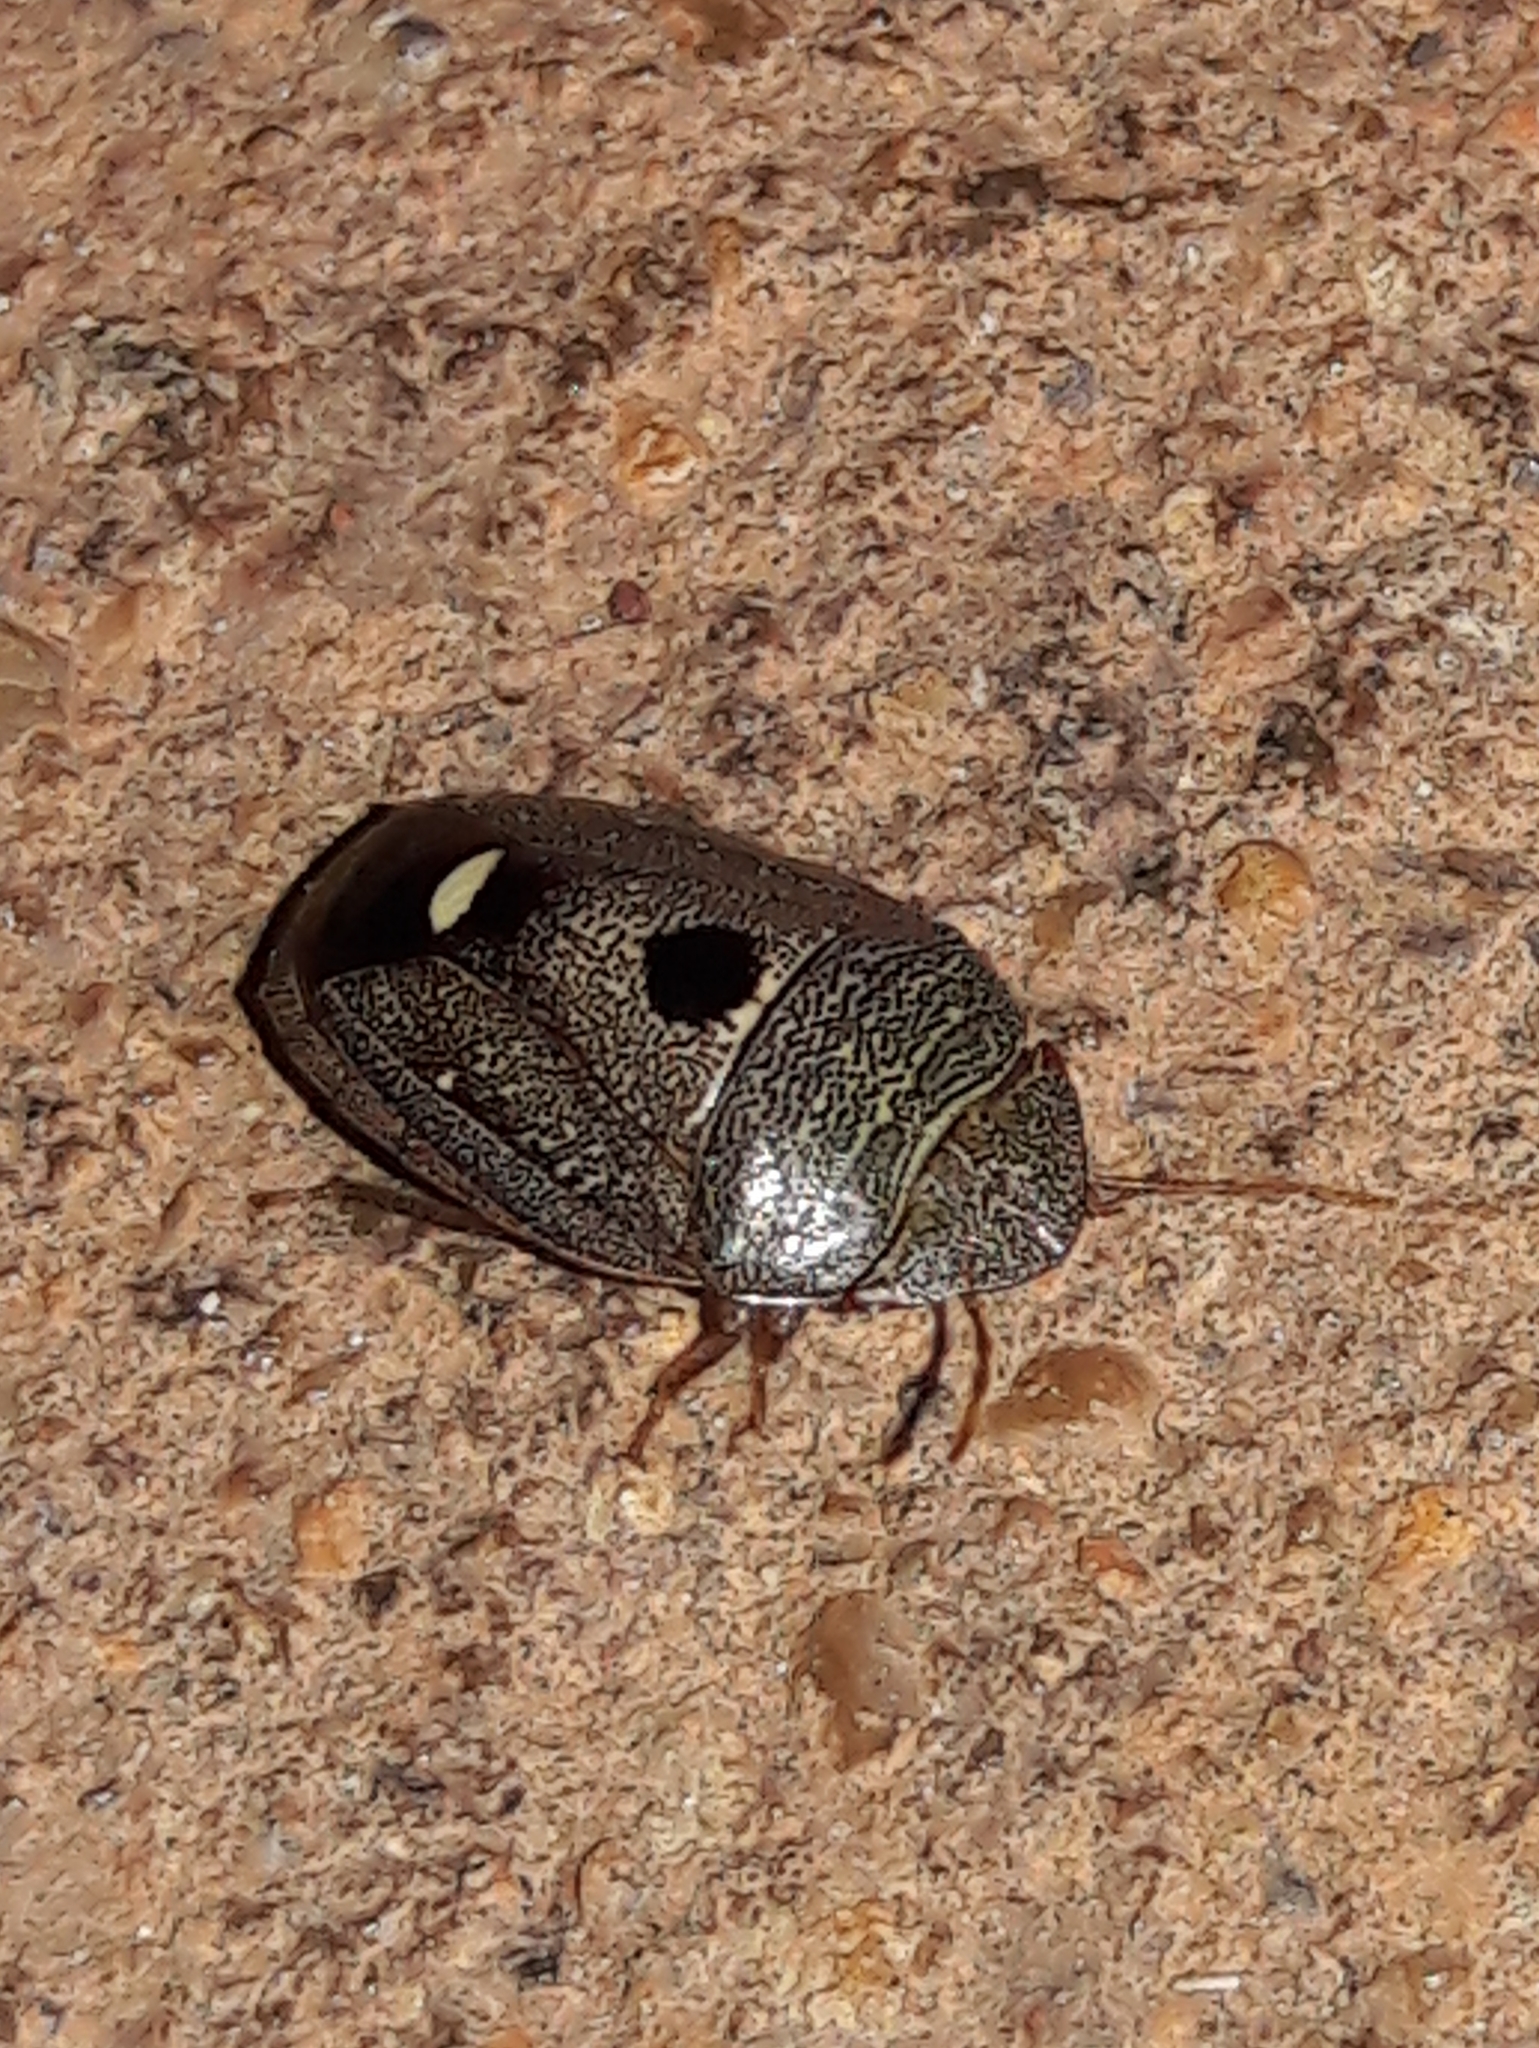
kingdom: Animalia
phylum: Arthropoda
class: Insecta
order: Hemiptera
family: Pentatomidae
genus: Alveostethus
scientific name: Alveostethus politus
